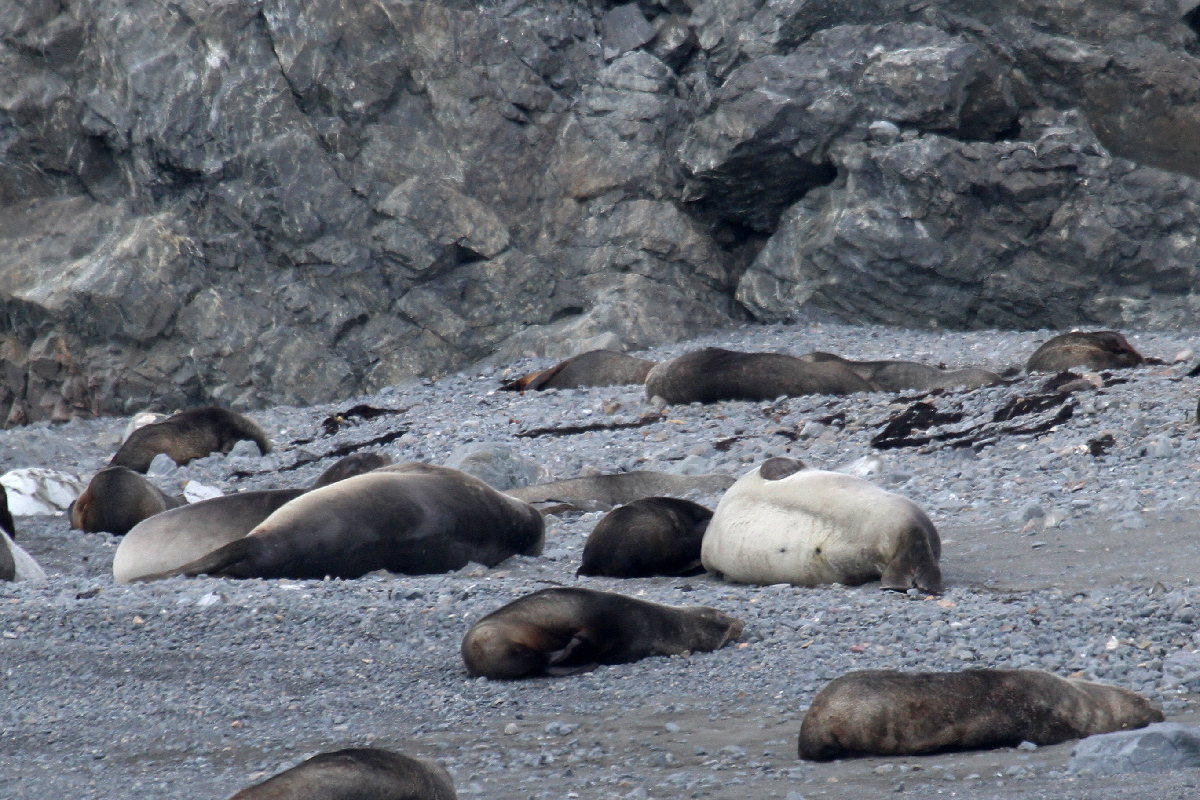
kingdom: Animalia
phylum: Chordata
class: Mammalia
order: Carnivora
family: Phocidae
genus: Mirounga
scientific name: Mirounga leonina
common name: Southern elephant seal
